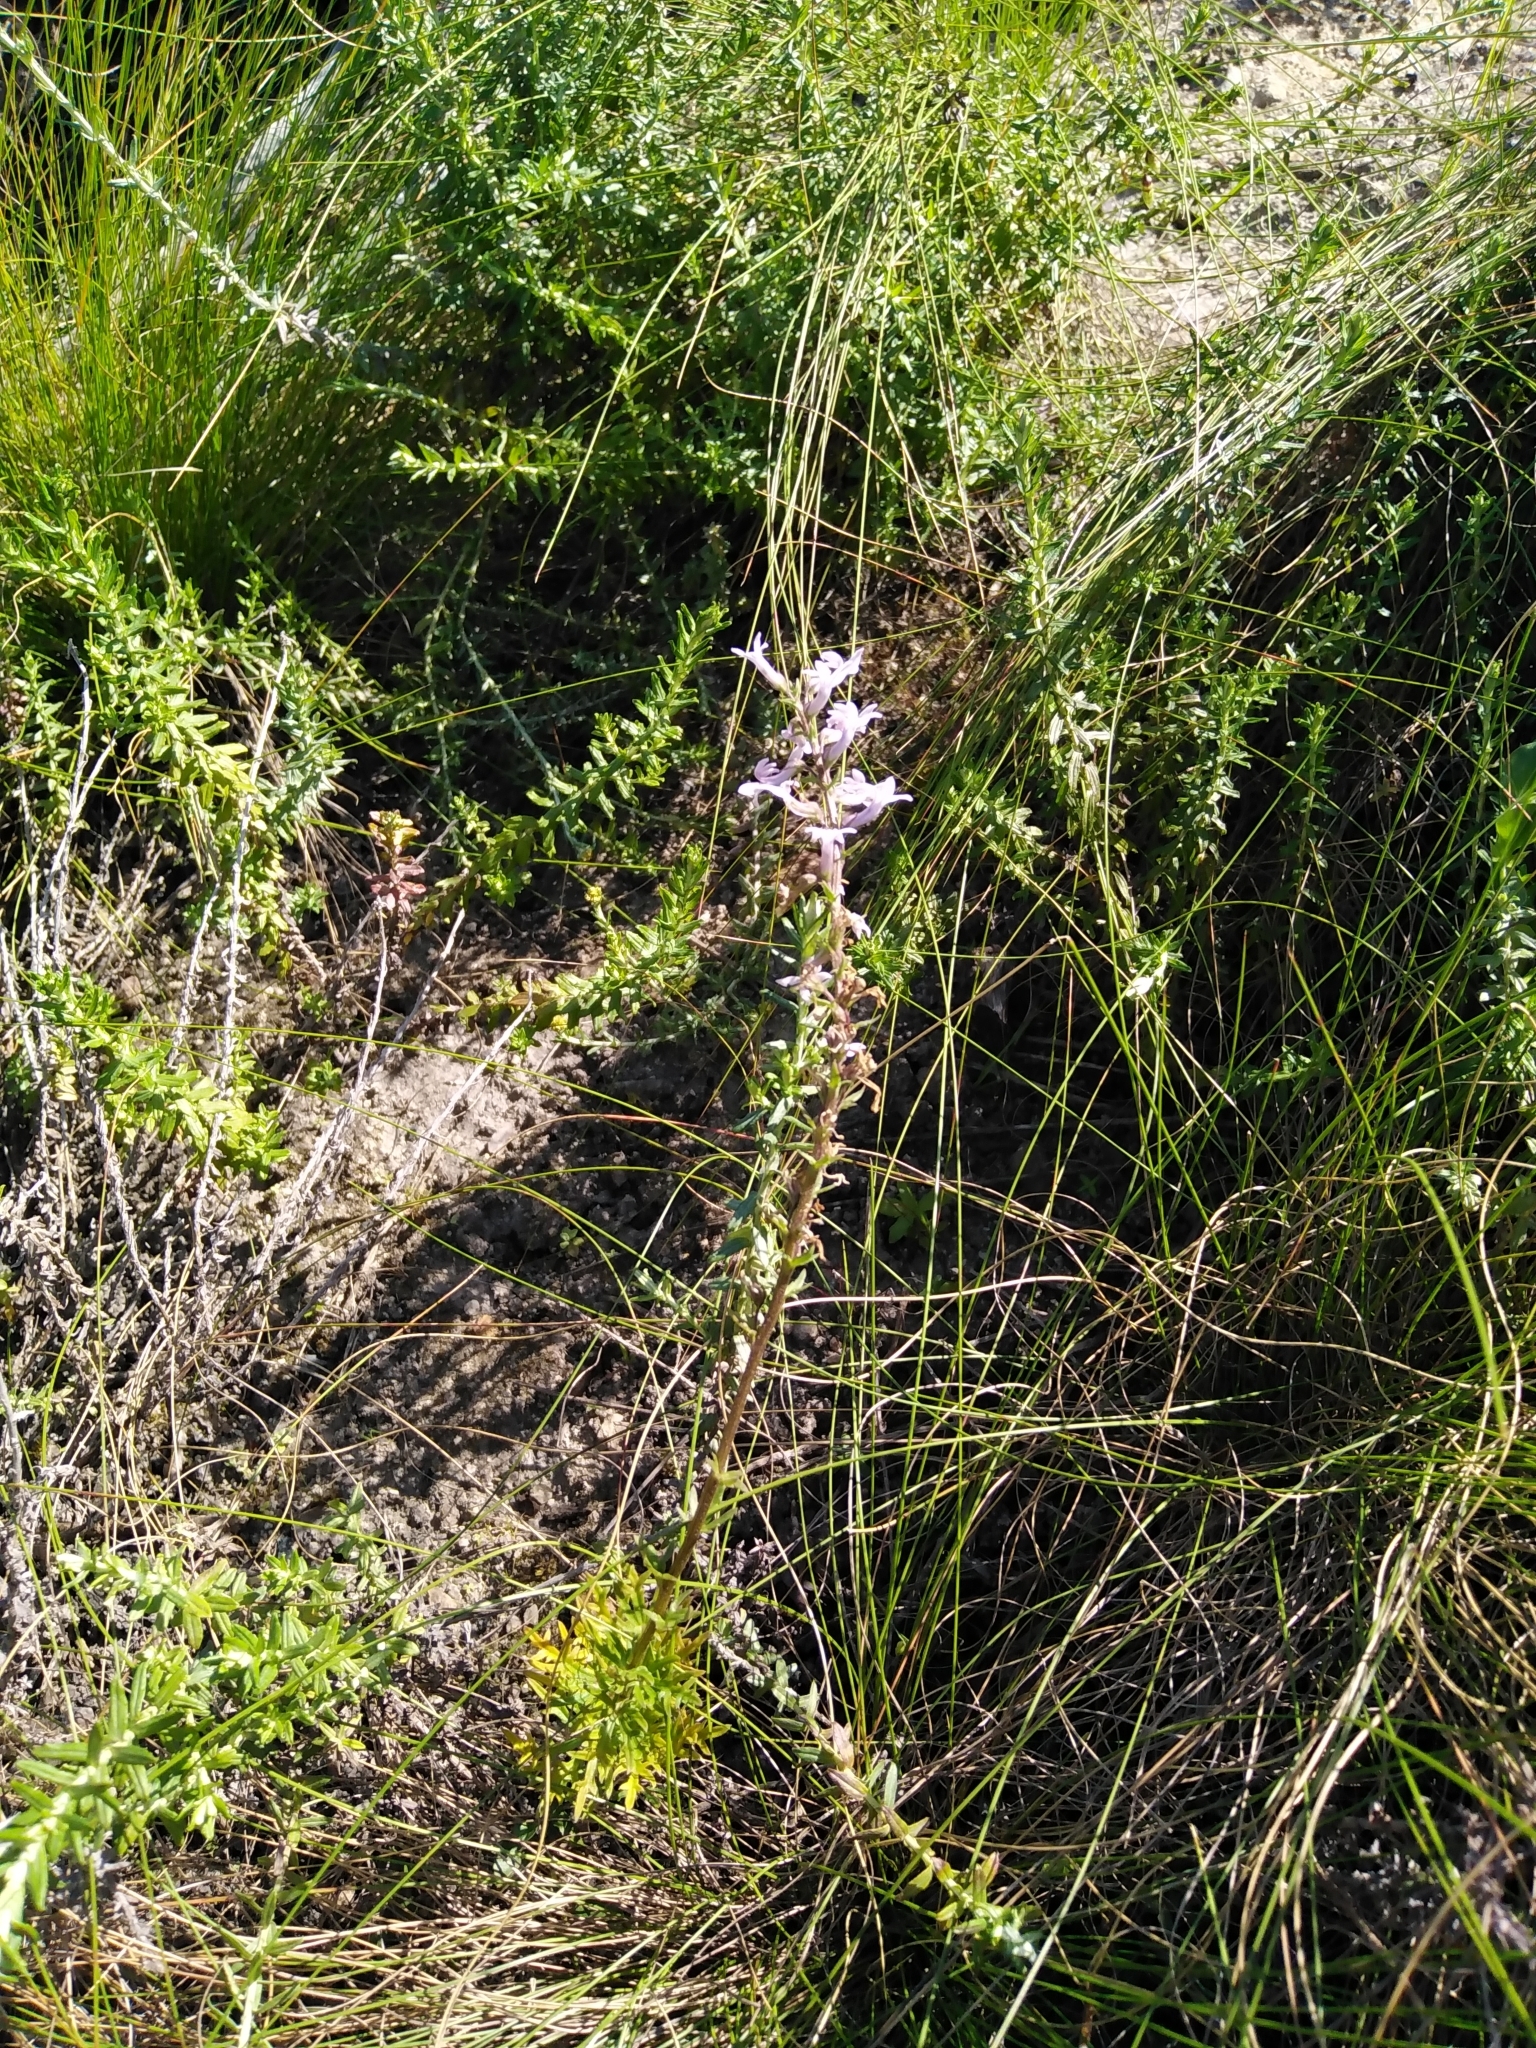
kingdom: Plantae
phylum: Tracheophyta
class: Magnoliopsida
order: Asterales
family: Campanulaceae
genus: Cyphia
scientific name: Cyphia bulbosa
